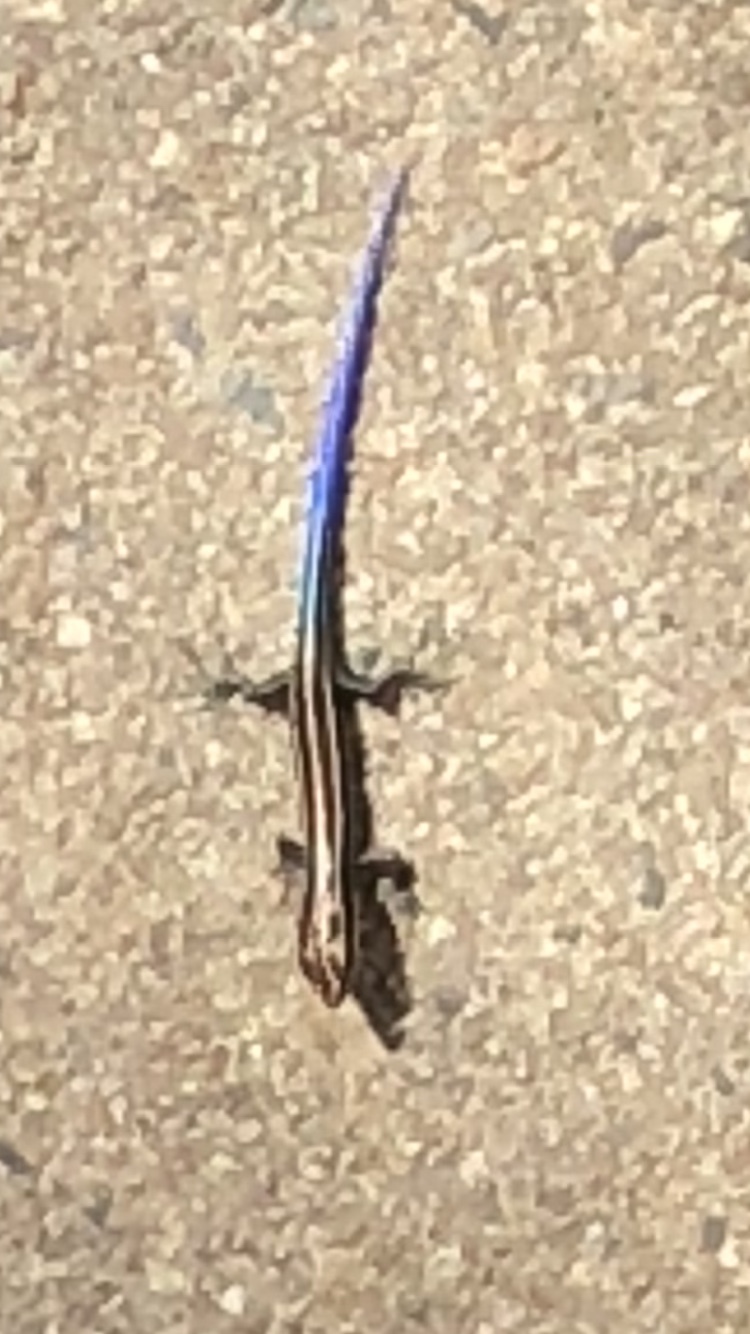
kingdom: Animalia
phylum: Chordata
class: Squamata
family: Scincidae
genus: Plestiodon
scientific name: Plestiodon fasciatus
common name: Five-lined skink
